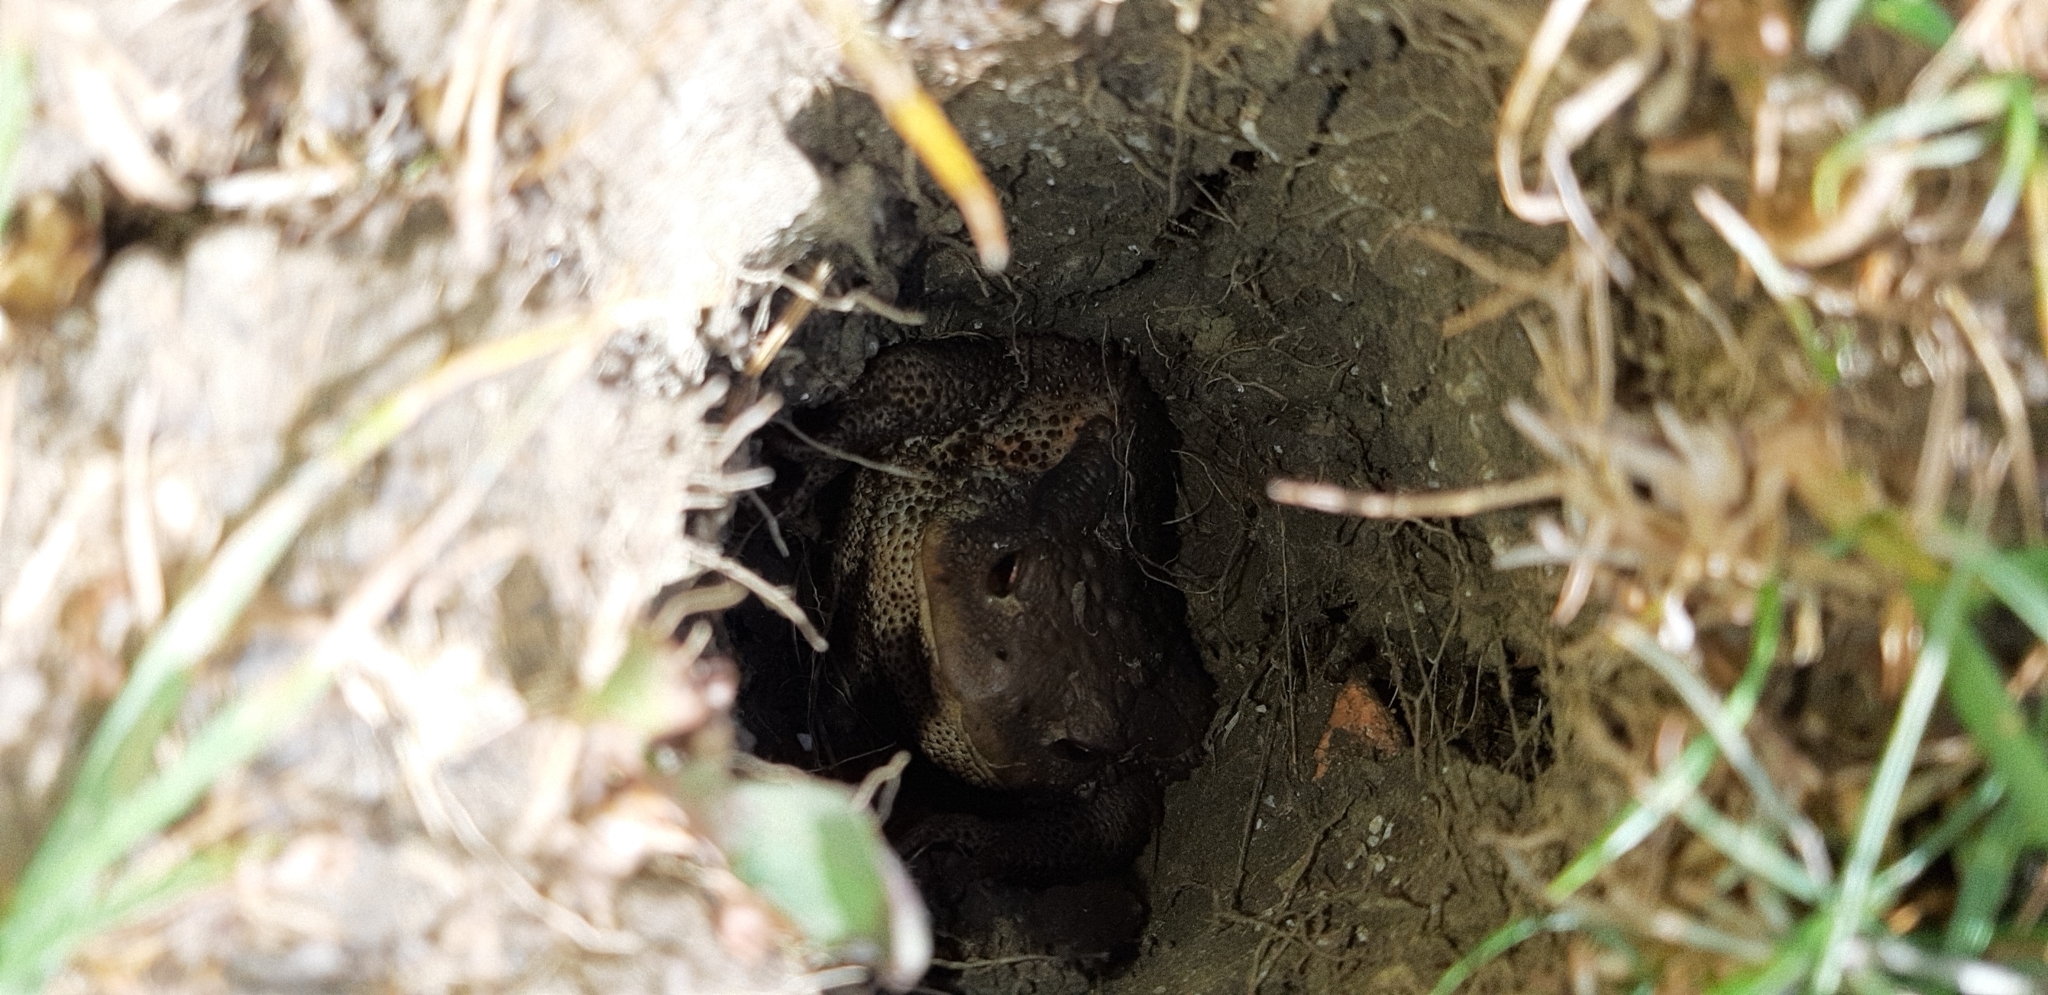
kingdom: Animalia
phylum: Chordata
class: Amphibia
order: Anura
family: Bufonidae
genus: Bufo
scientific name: Bufo bufo
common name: Common toad
